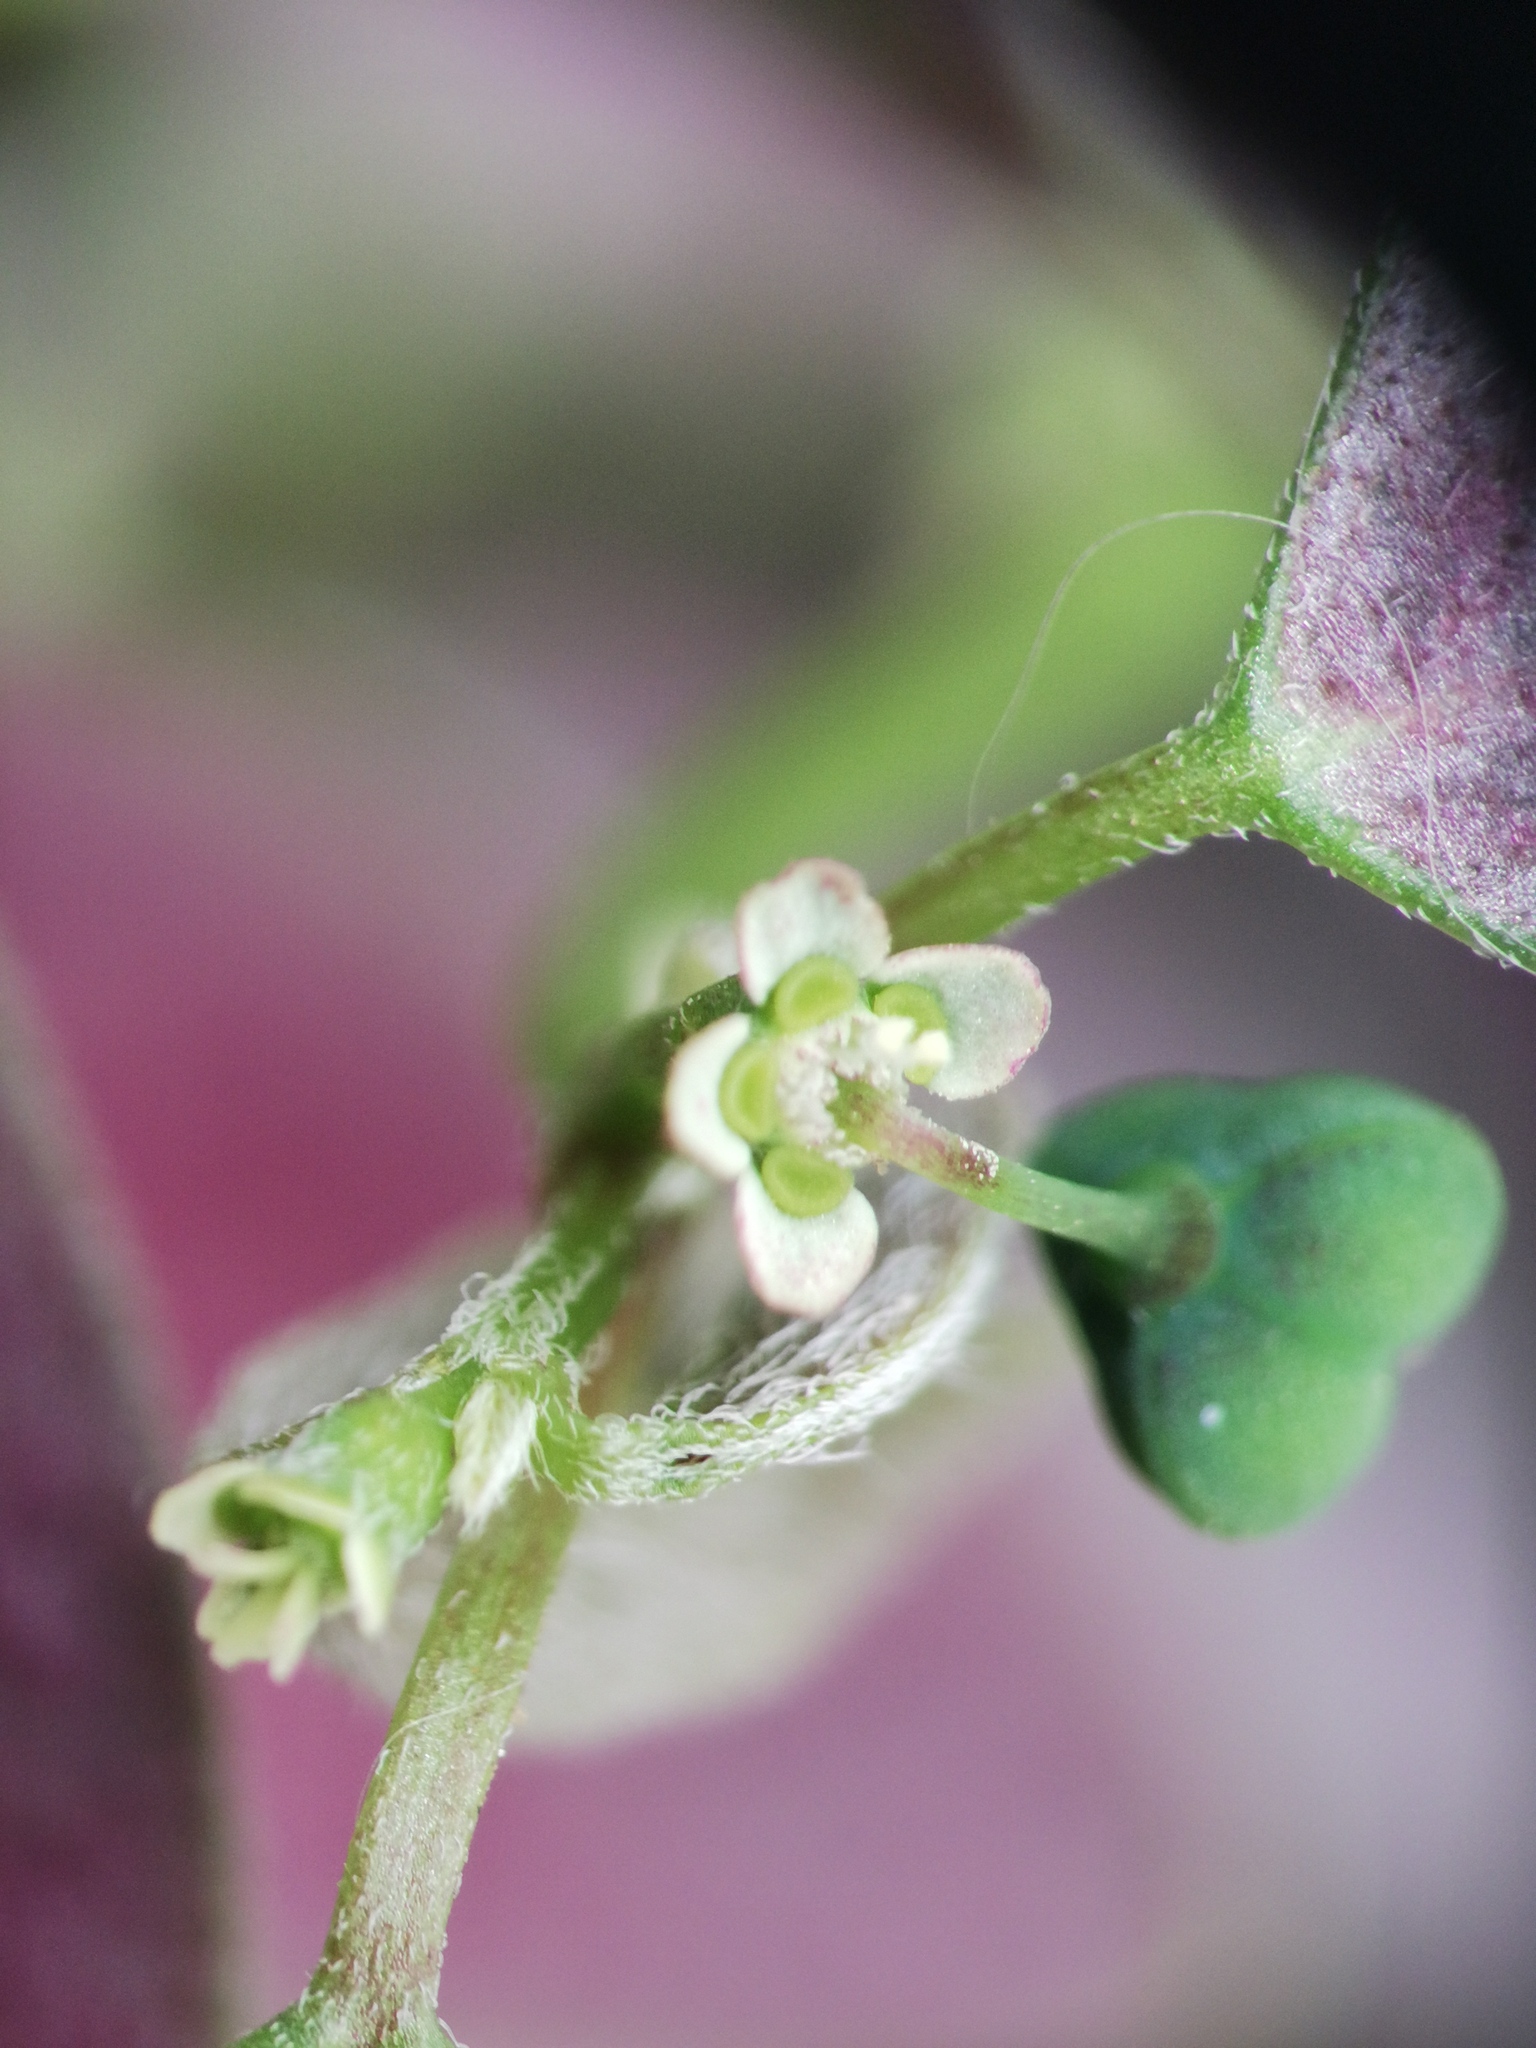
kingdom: Plantae
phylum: Tracheophyta
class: Magnoliopsida
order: Malpighiales
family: Euphorbiaceae
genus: Euphorbia
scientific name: Euphorbia graminea
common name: Grassleaf spurge
